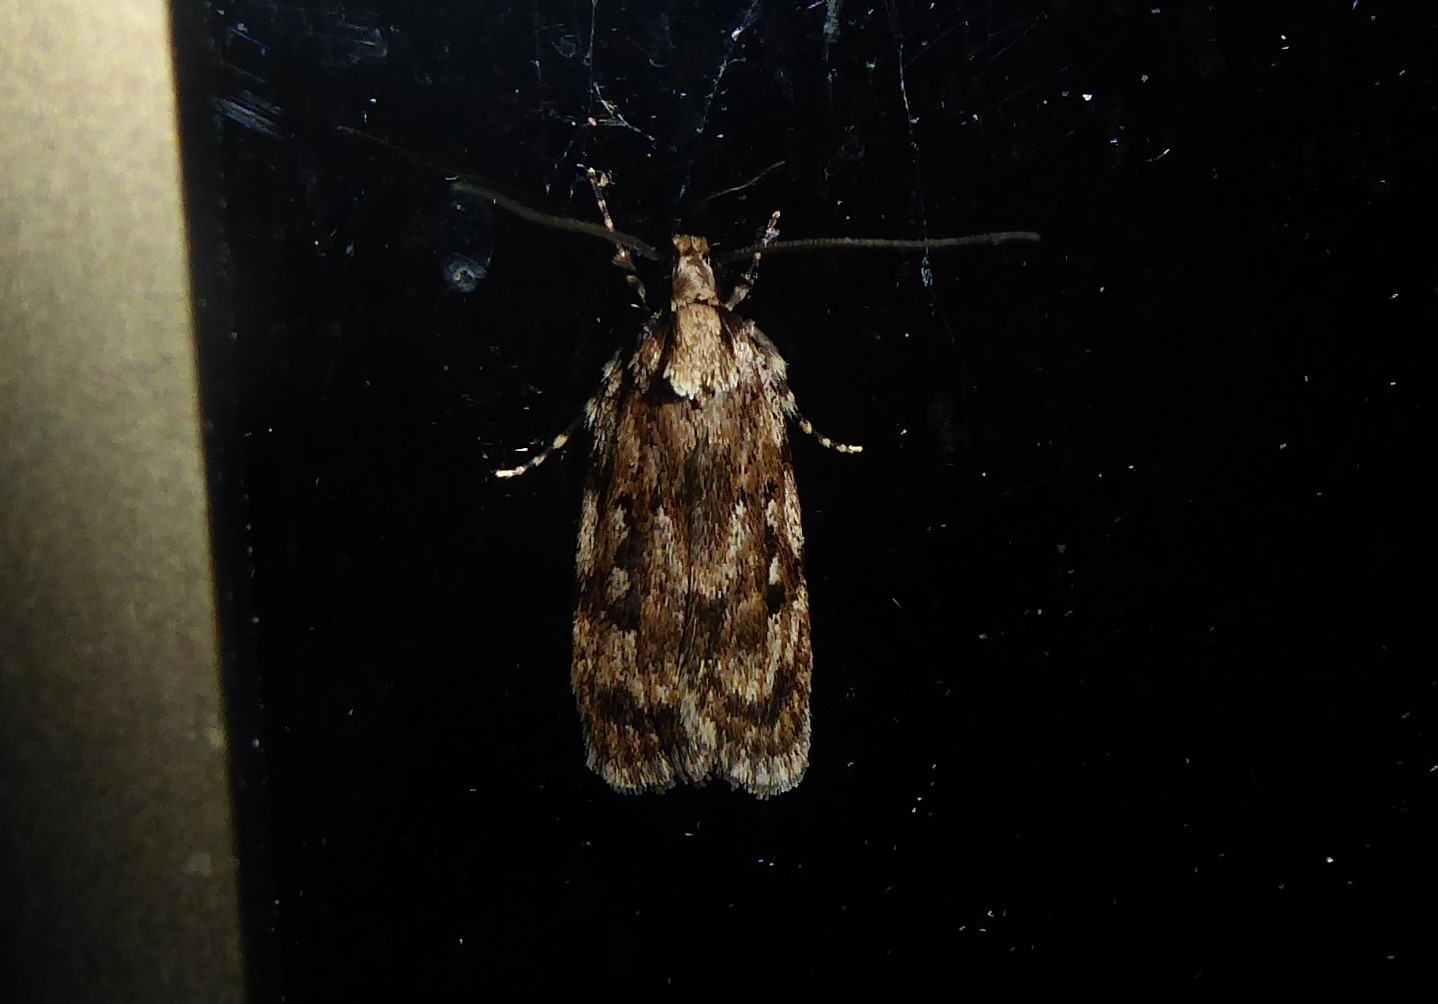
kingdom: Animalia
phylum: Arthropoda
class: Insecta
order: Lepidoptera
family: Oecophoridae
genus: Barea
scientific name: Barea exarcha
